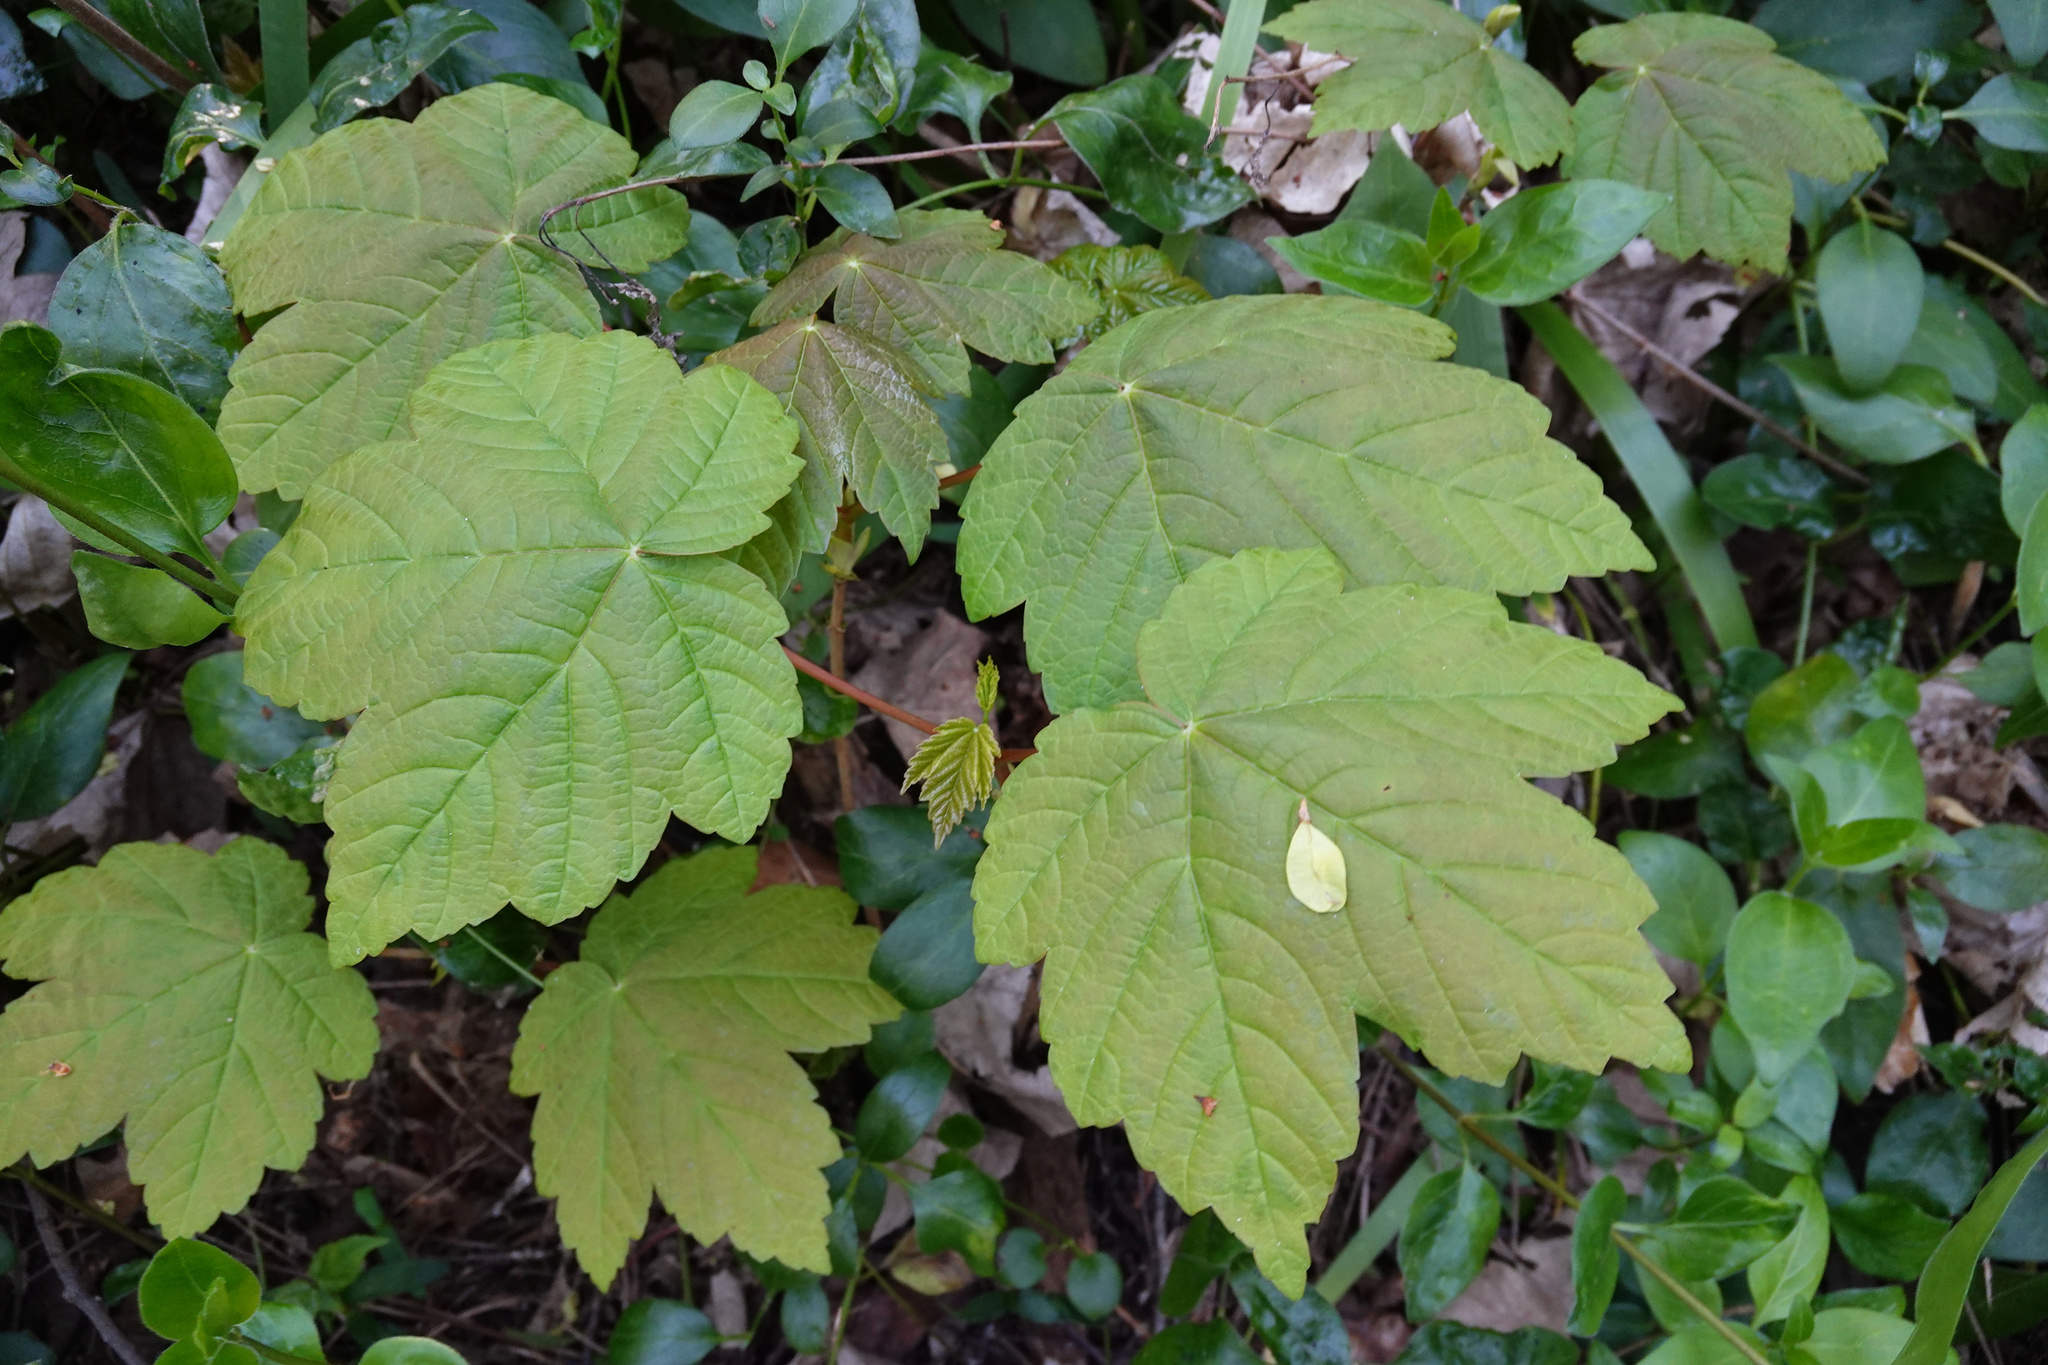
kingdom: Plantae
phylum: Tracheophyta
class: Magnoliopsida
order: Sapindales
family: Sapindaceae
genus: Acer
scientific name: Acer pseudoplatanus
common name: Sycamore
